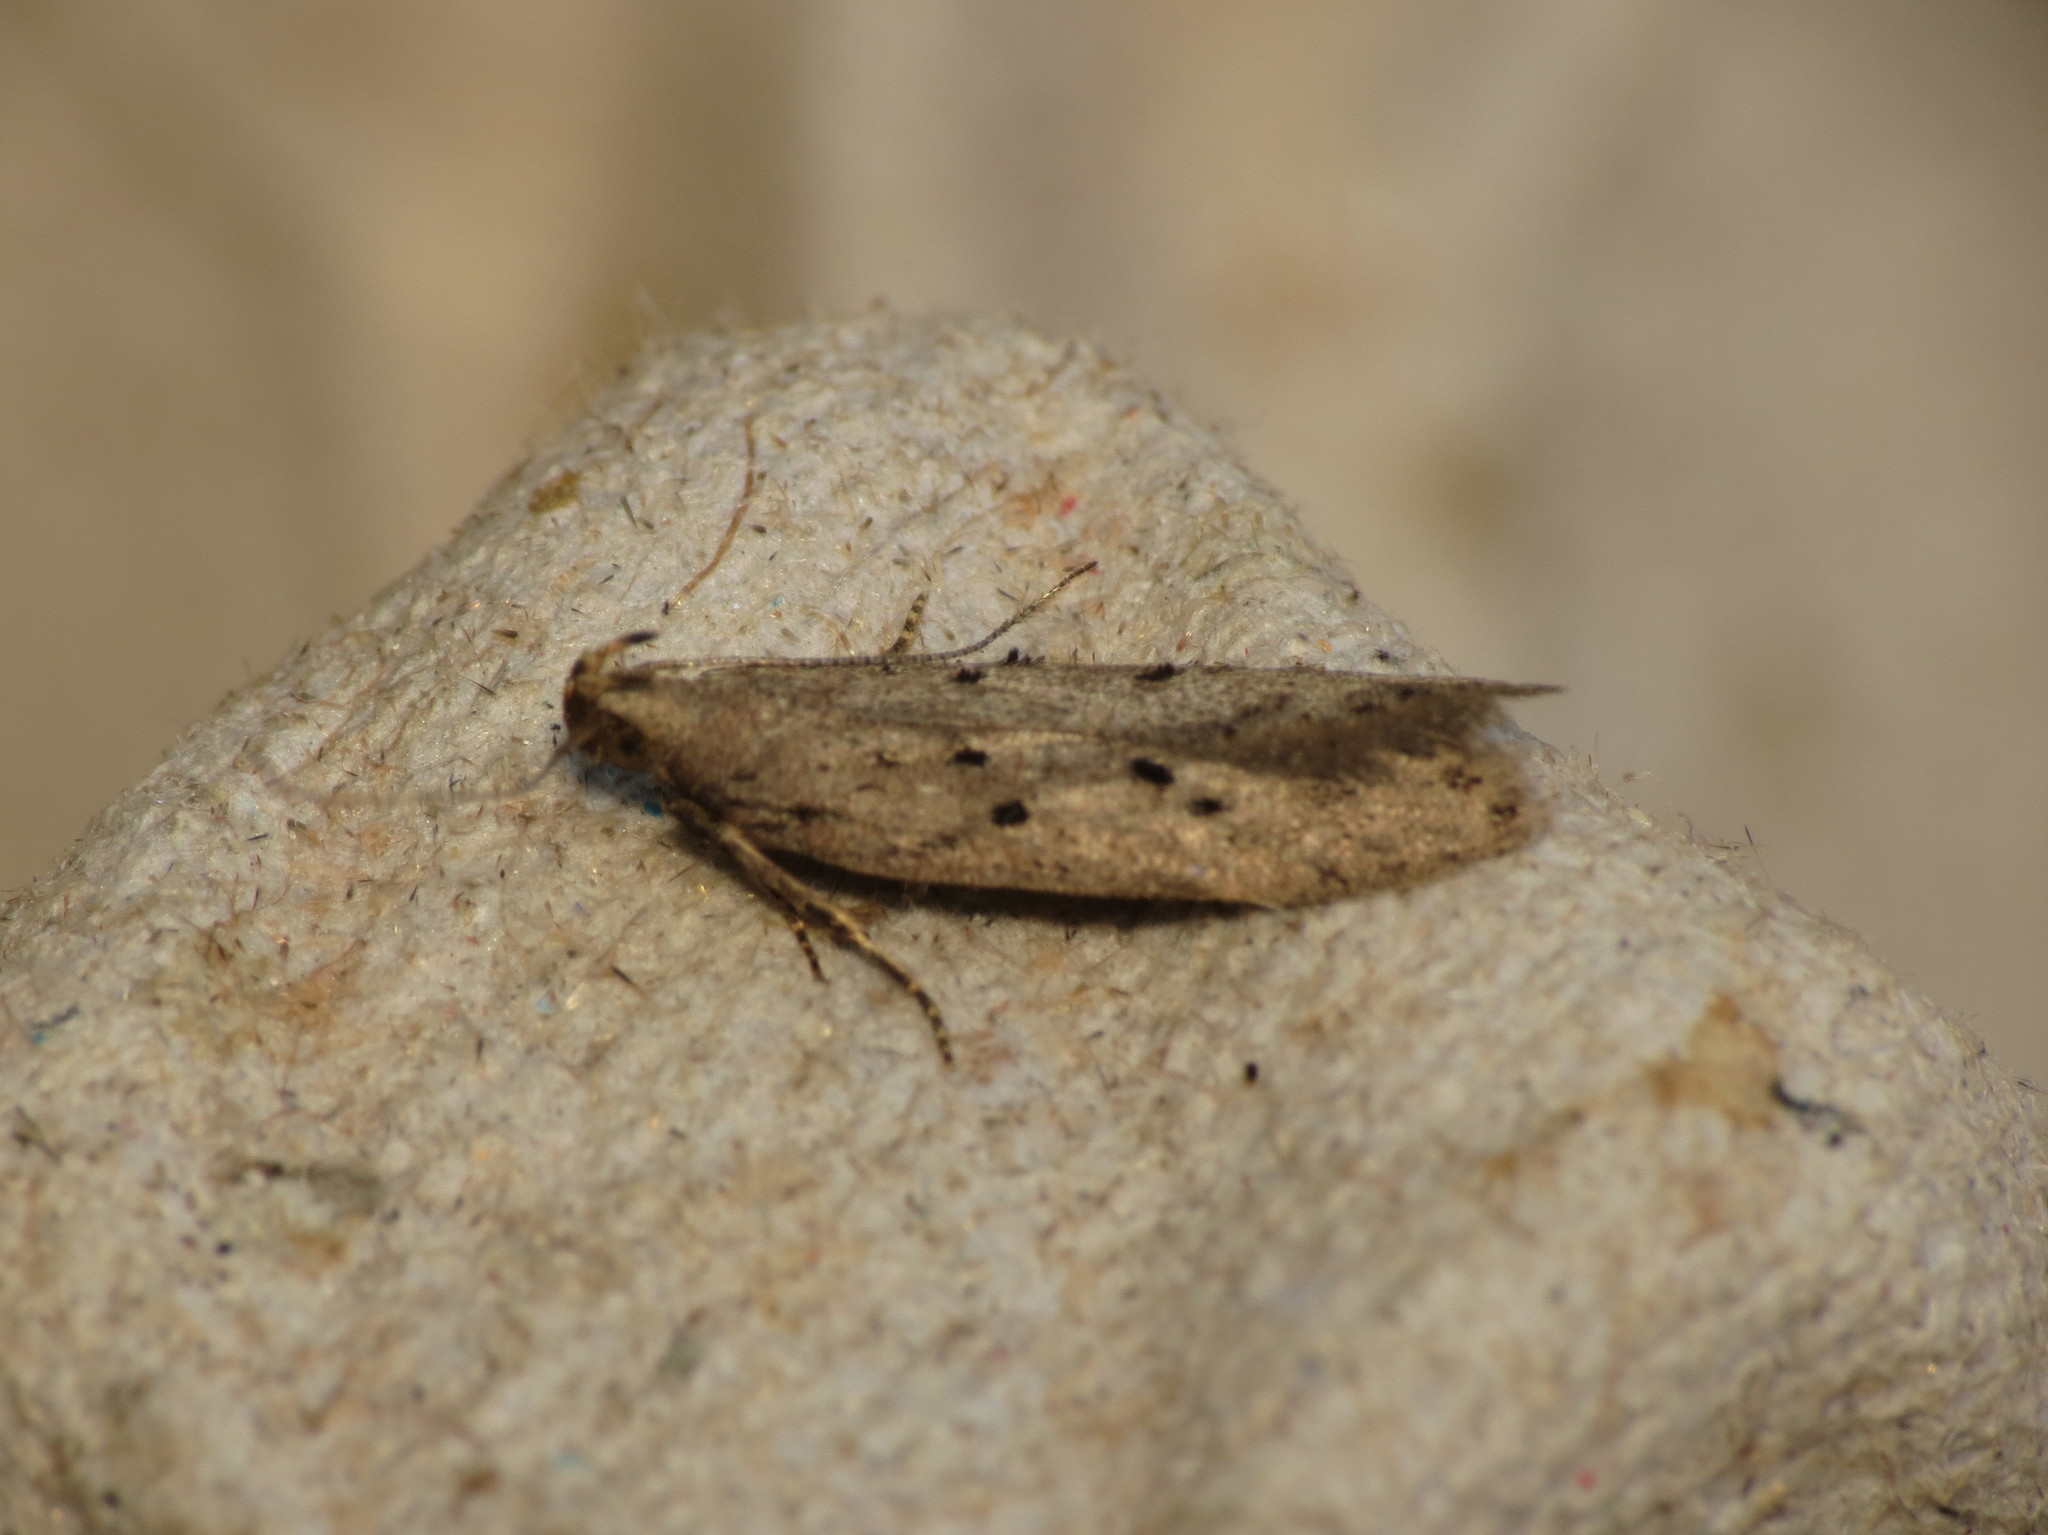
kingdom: Animalia
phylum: Arthropoda
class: Insecta
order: Lepidoptera
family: Gelechiidae
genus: Athrips
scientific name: Athrips mouffetella
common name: Dotted grey groundling
